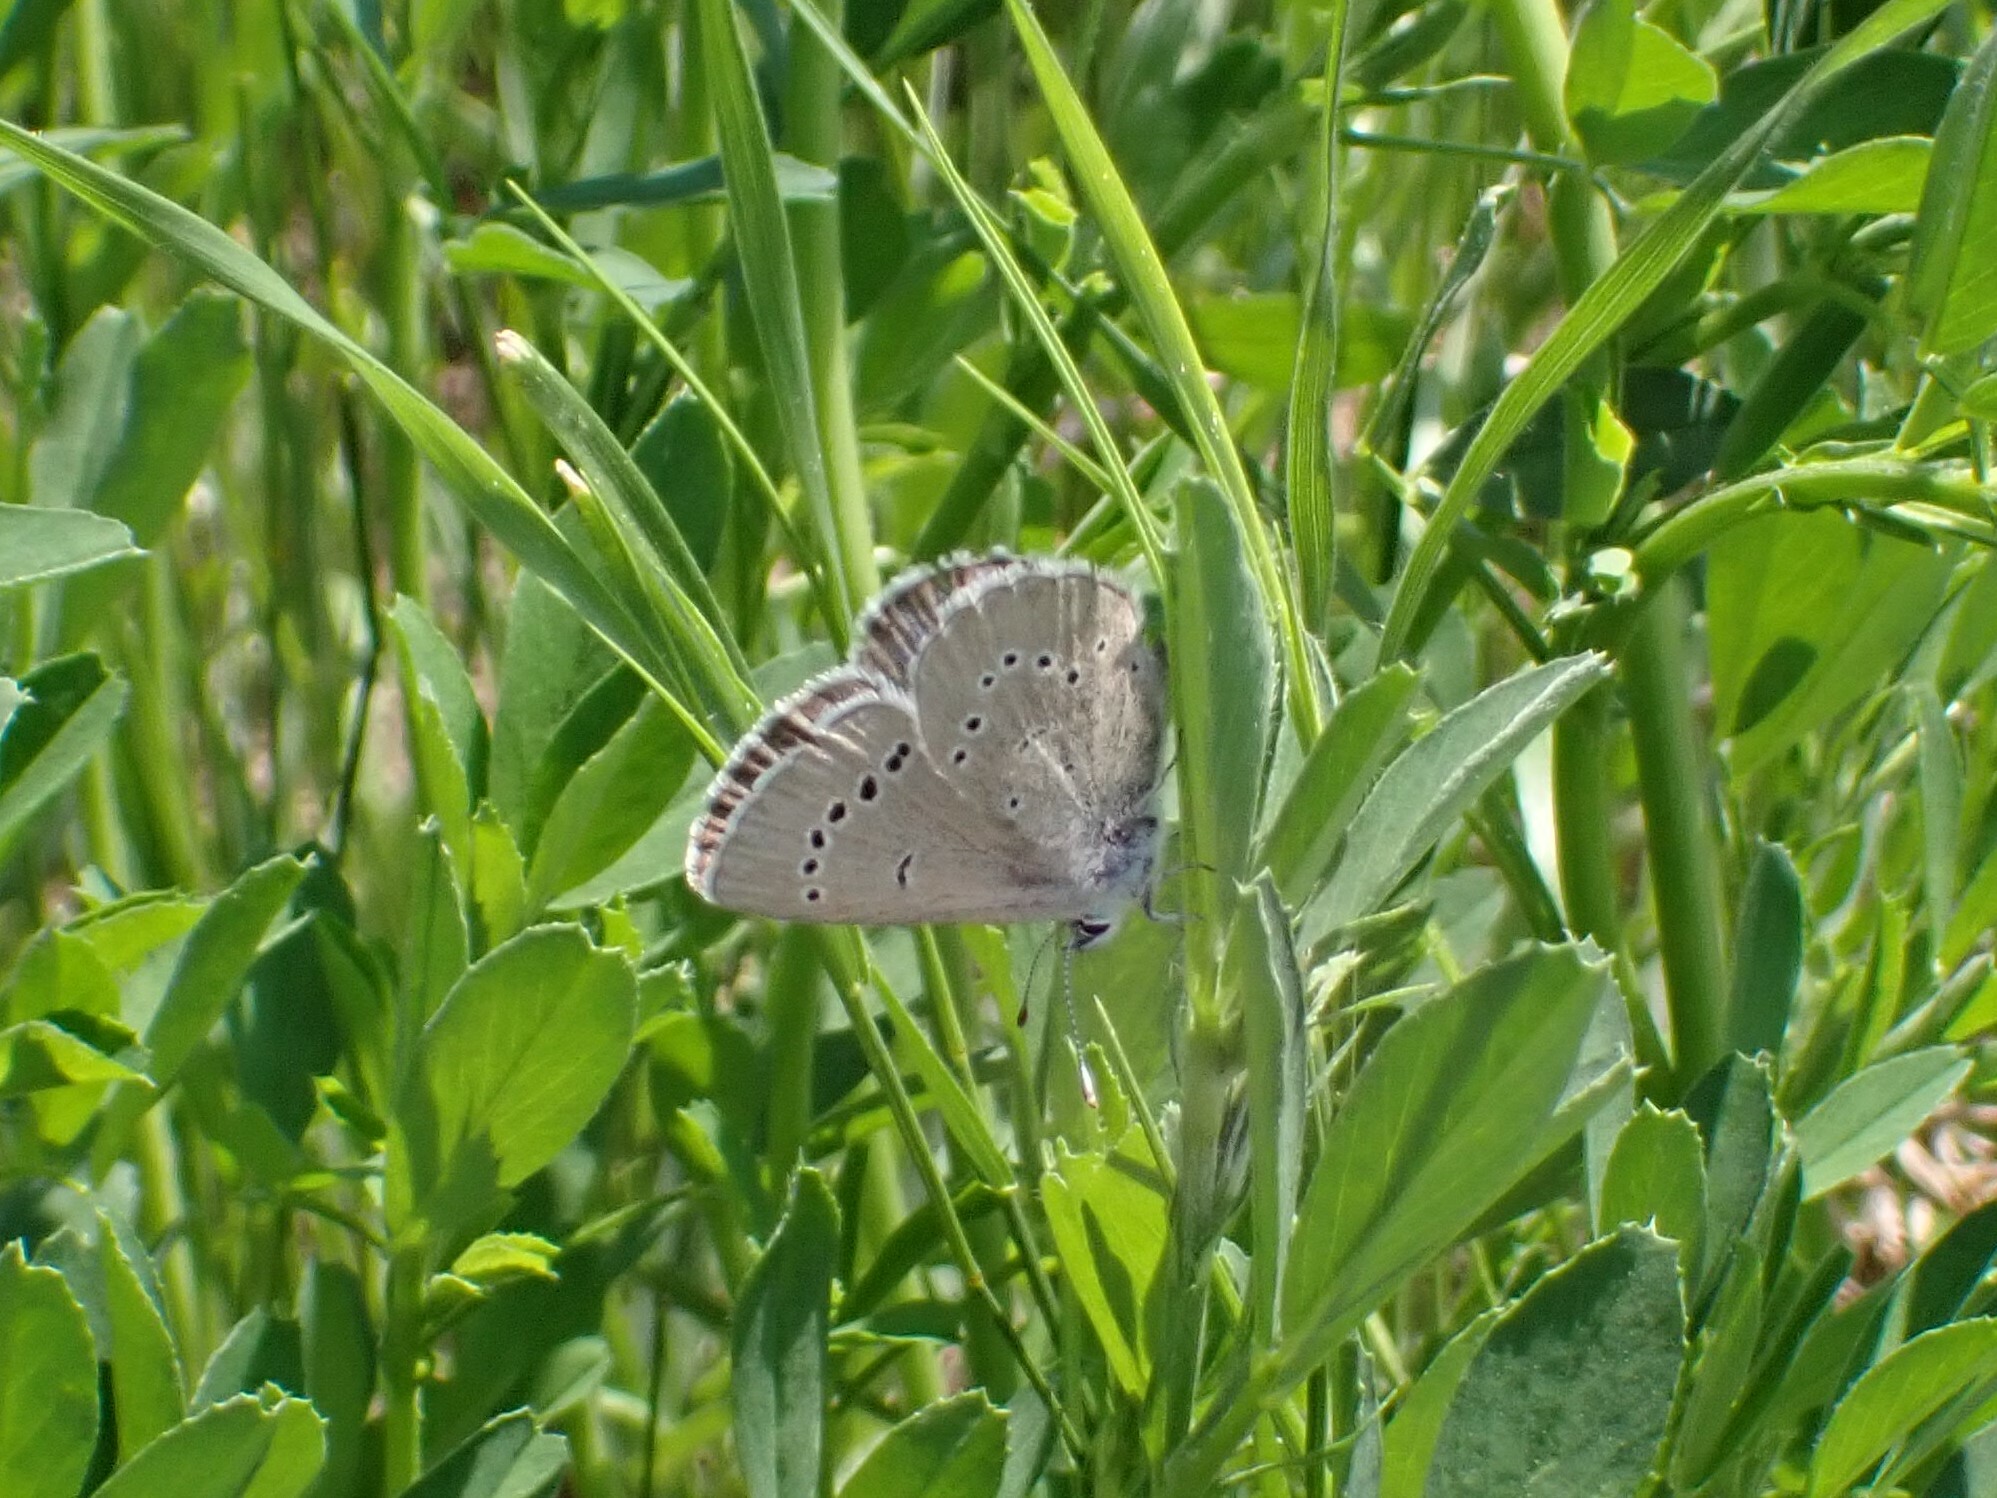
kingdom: Animalia
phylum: Arthropoda
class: Insecta
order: Lepidoptera
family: Lycaenidae
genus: Glaucopsyche
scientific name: Glaucopsyche lygdamus
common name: Silvery blue
